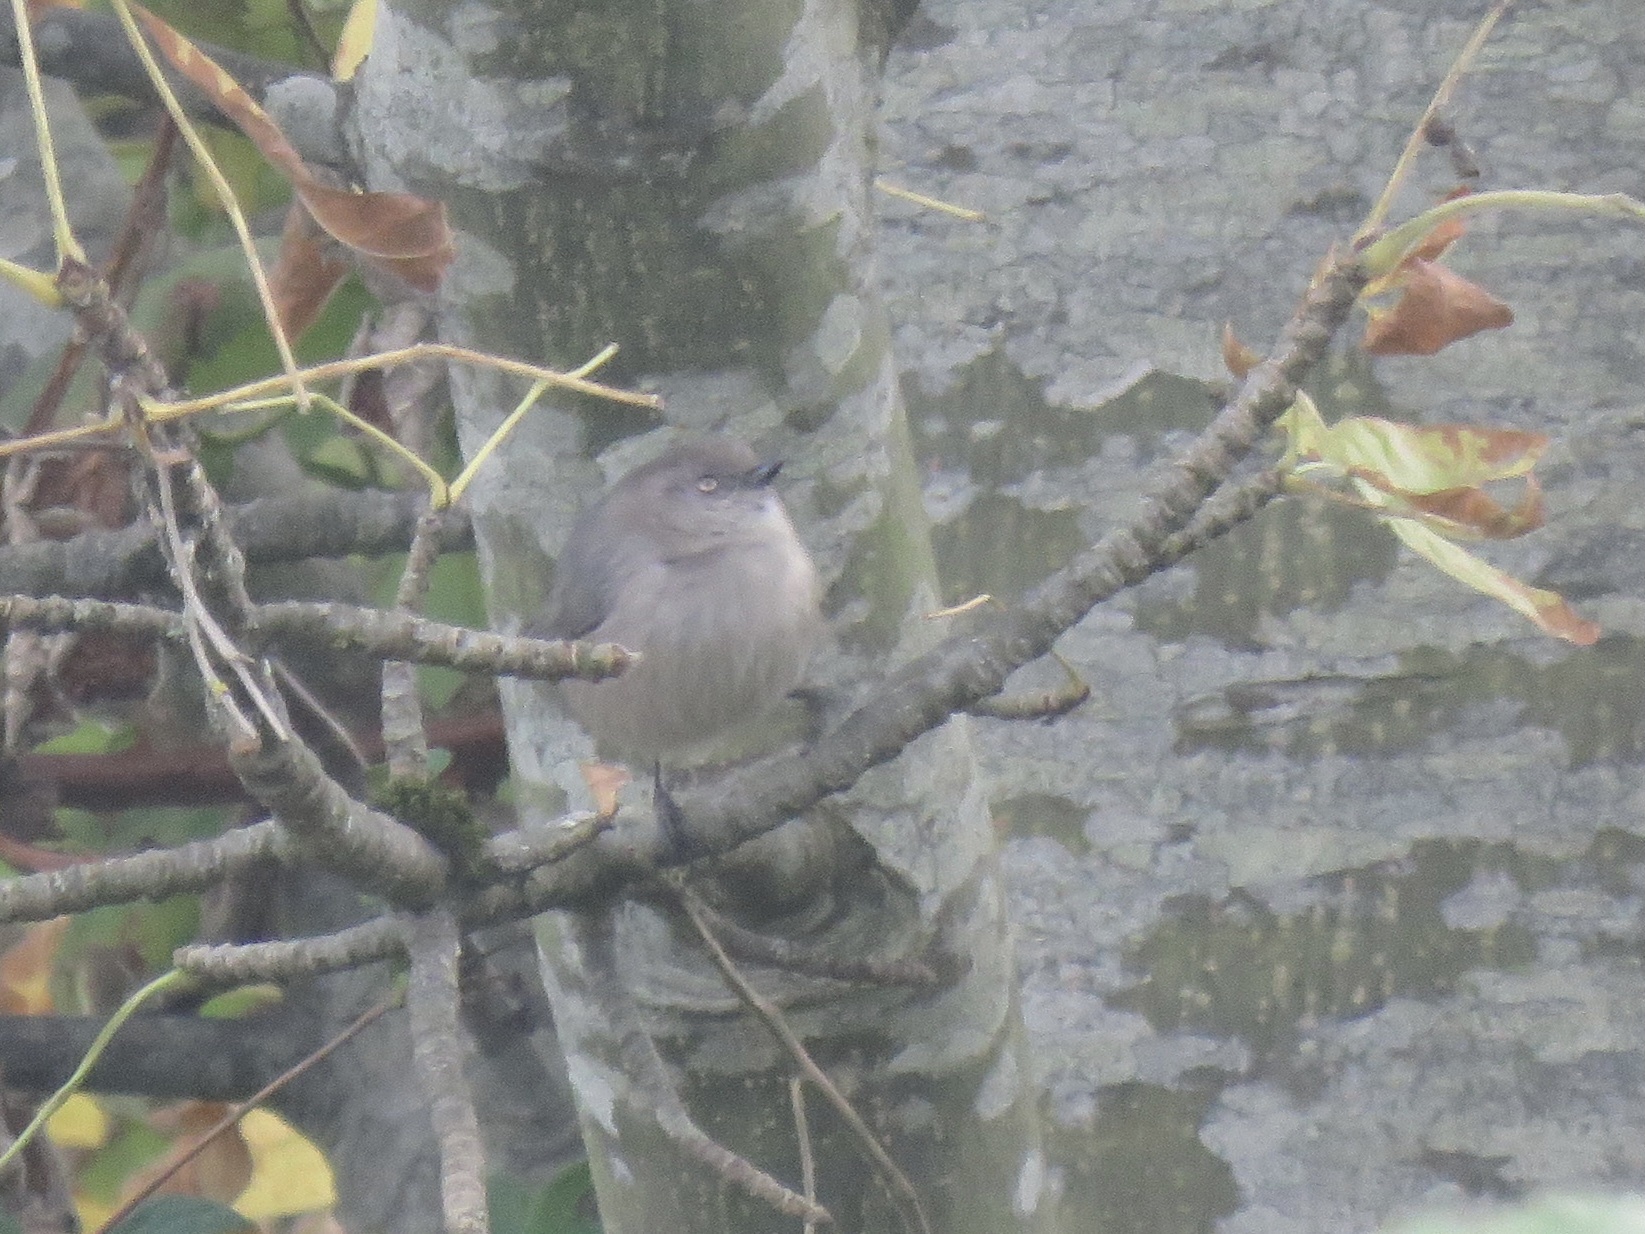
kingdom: Animalia
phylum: Chordata
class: Aves
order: Passeriformes
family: Aegithalidae
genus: Psaltriparus
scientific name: Psaltriparus minimus
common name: American bushtit
